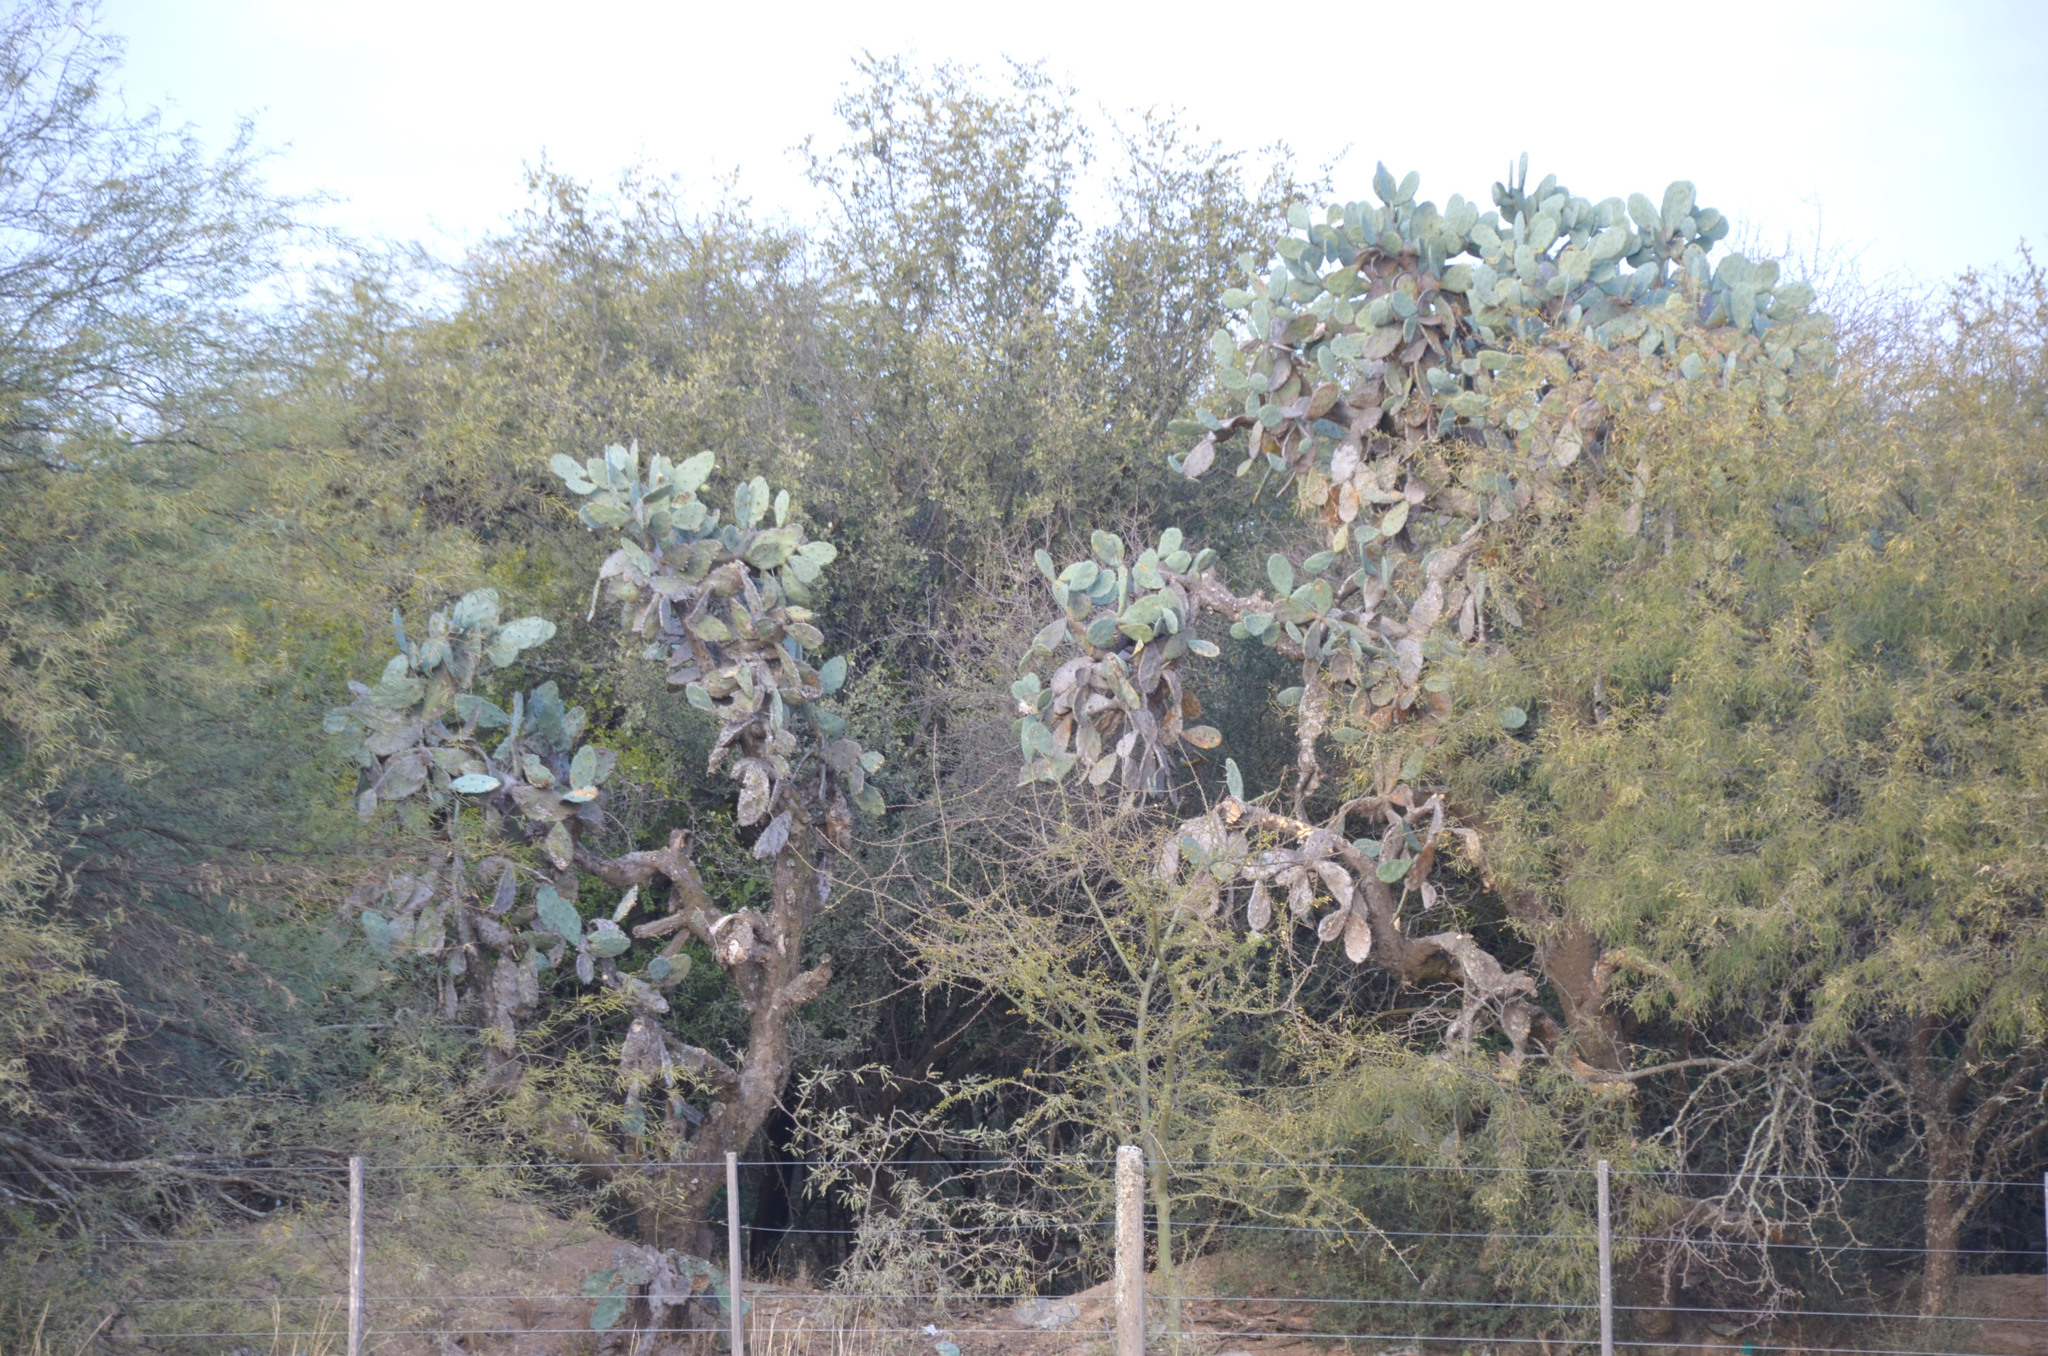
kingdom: Plantae
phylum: Tracheophyta
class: Magnoliopsida
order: Caryophyllales
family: Cactaceae
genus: Opuntia
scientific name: Opuntia quimilo
